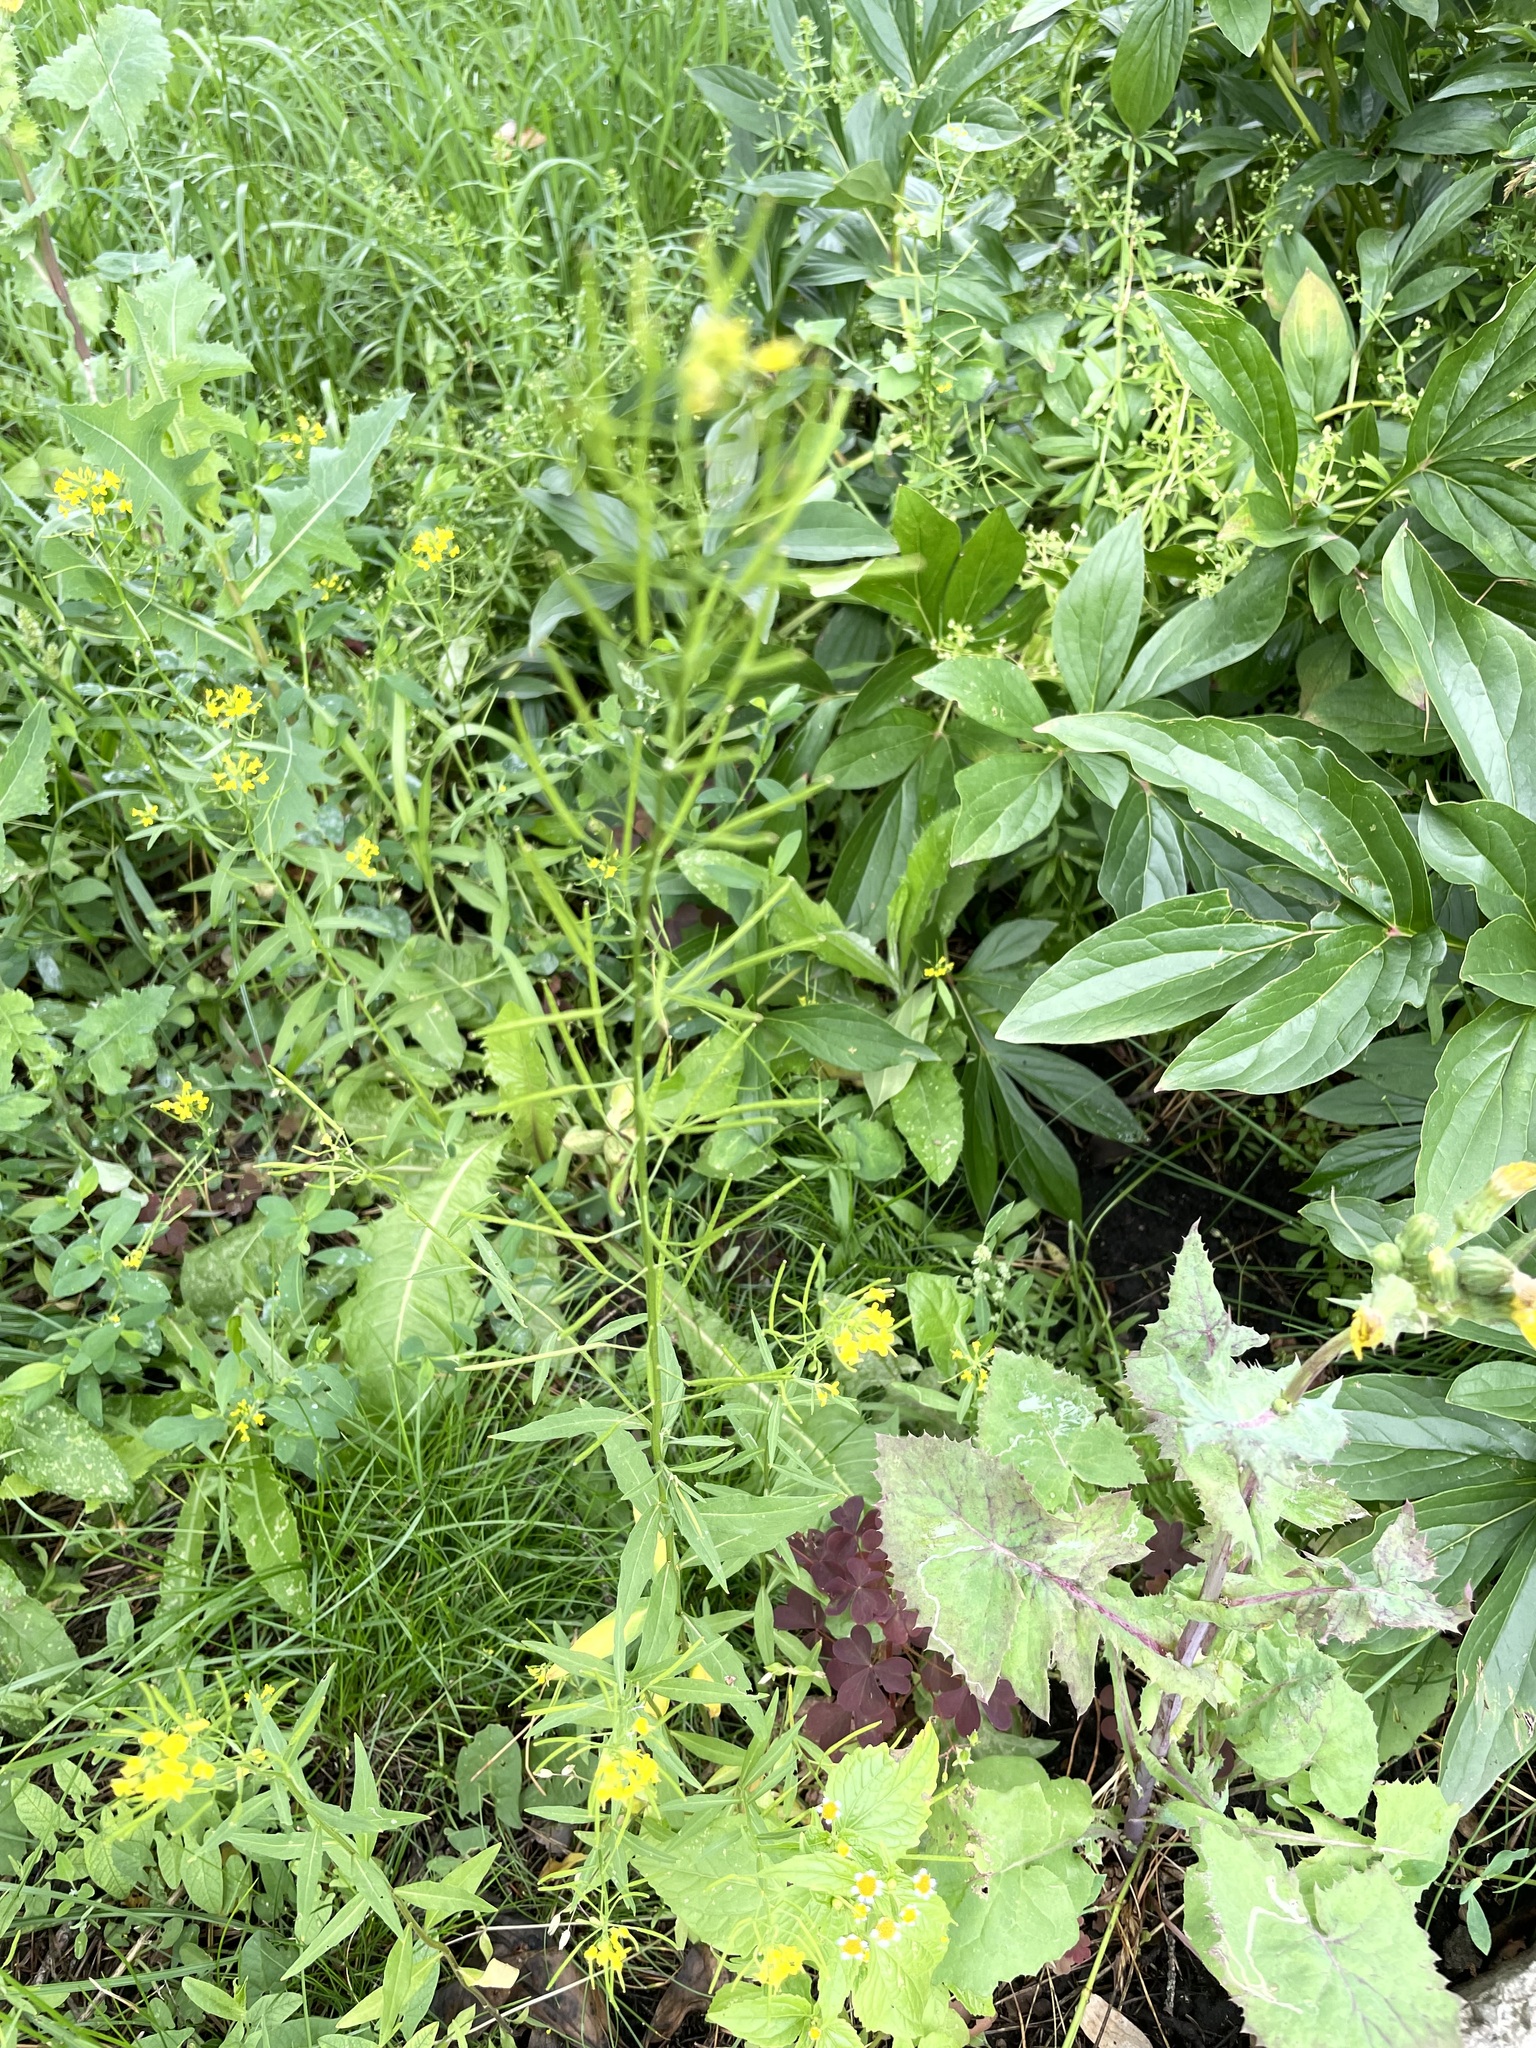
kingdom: Plantae
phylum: Tracheophyta
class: Magnoliopsida
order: Brassicales
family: Brassicaceae
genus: Erysimum
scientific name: Erysimum cheiranthoides
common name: Treacle mustard
